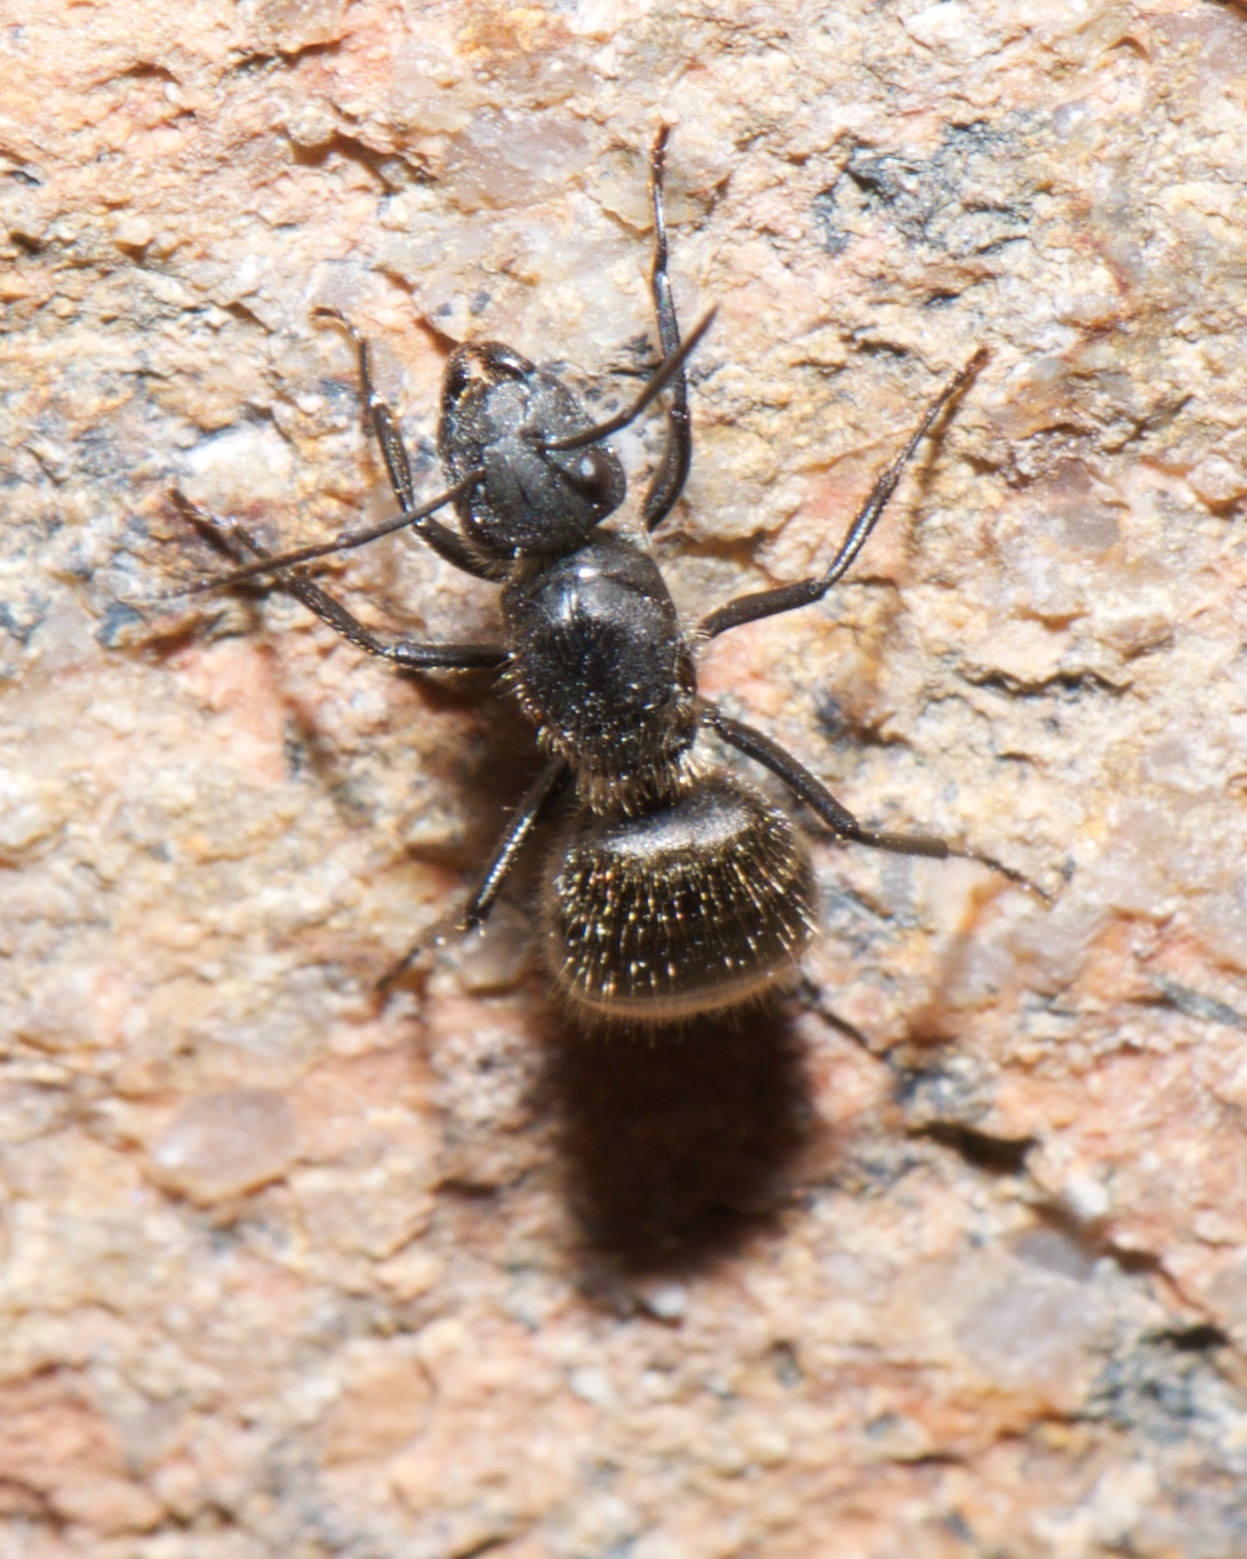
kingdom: Animalia
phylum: Arthropoda
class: Insecta
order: Hymenoptera
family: Formicidae
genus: Camponotus
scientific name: Camponotus mus
